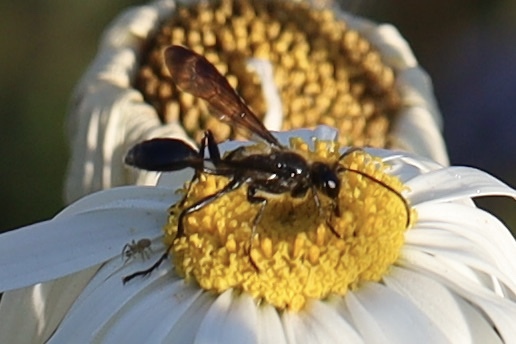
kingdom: Animalia
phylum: Arthropoda
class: Insecta
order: Hymenoptera
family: Sphecidae
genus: Isodontia
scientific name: Isodontia mexicana
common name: Mud dauber
